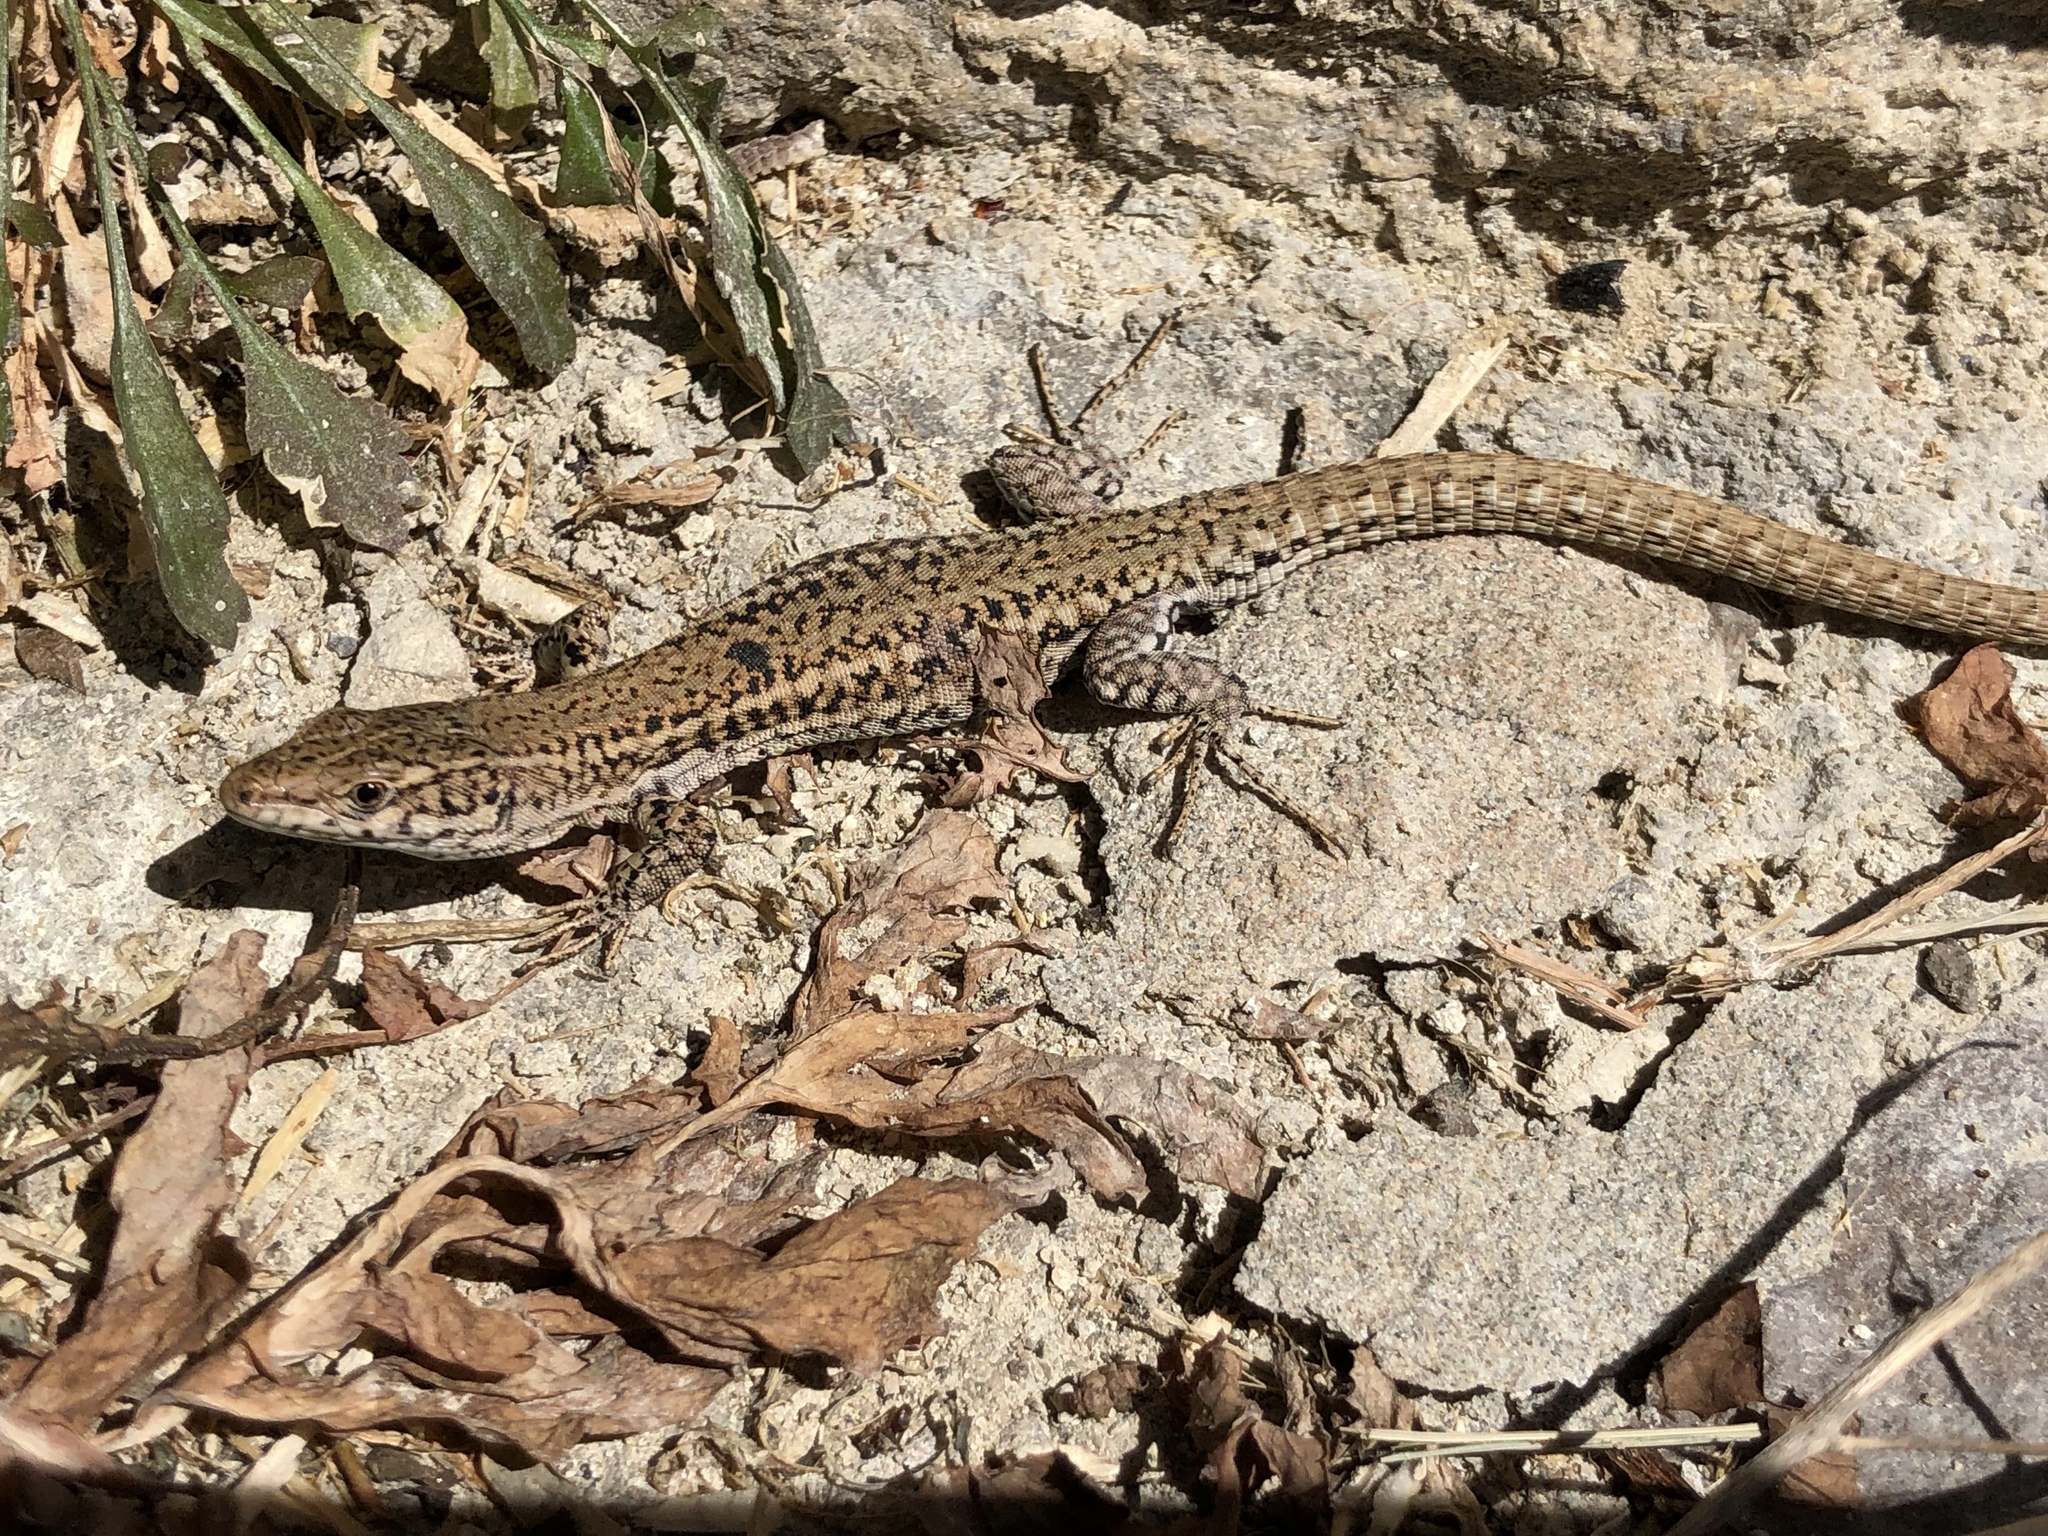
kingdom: Animalia
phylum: Chordata
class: Squamata
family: Lacertidae
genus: Podarcis
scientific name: Podarcis liolepis
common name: Catalonian wall lizard
